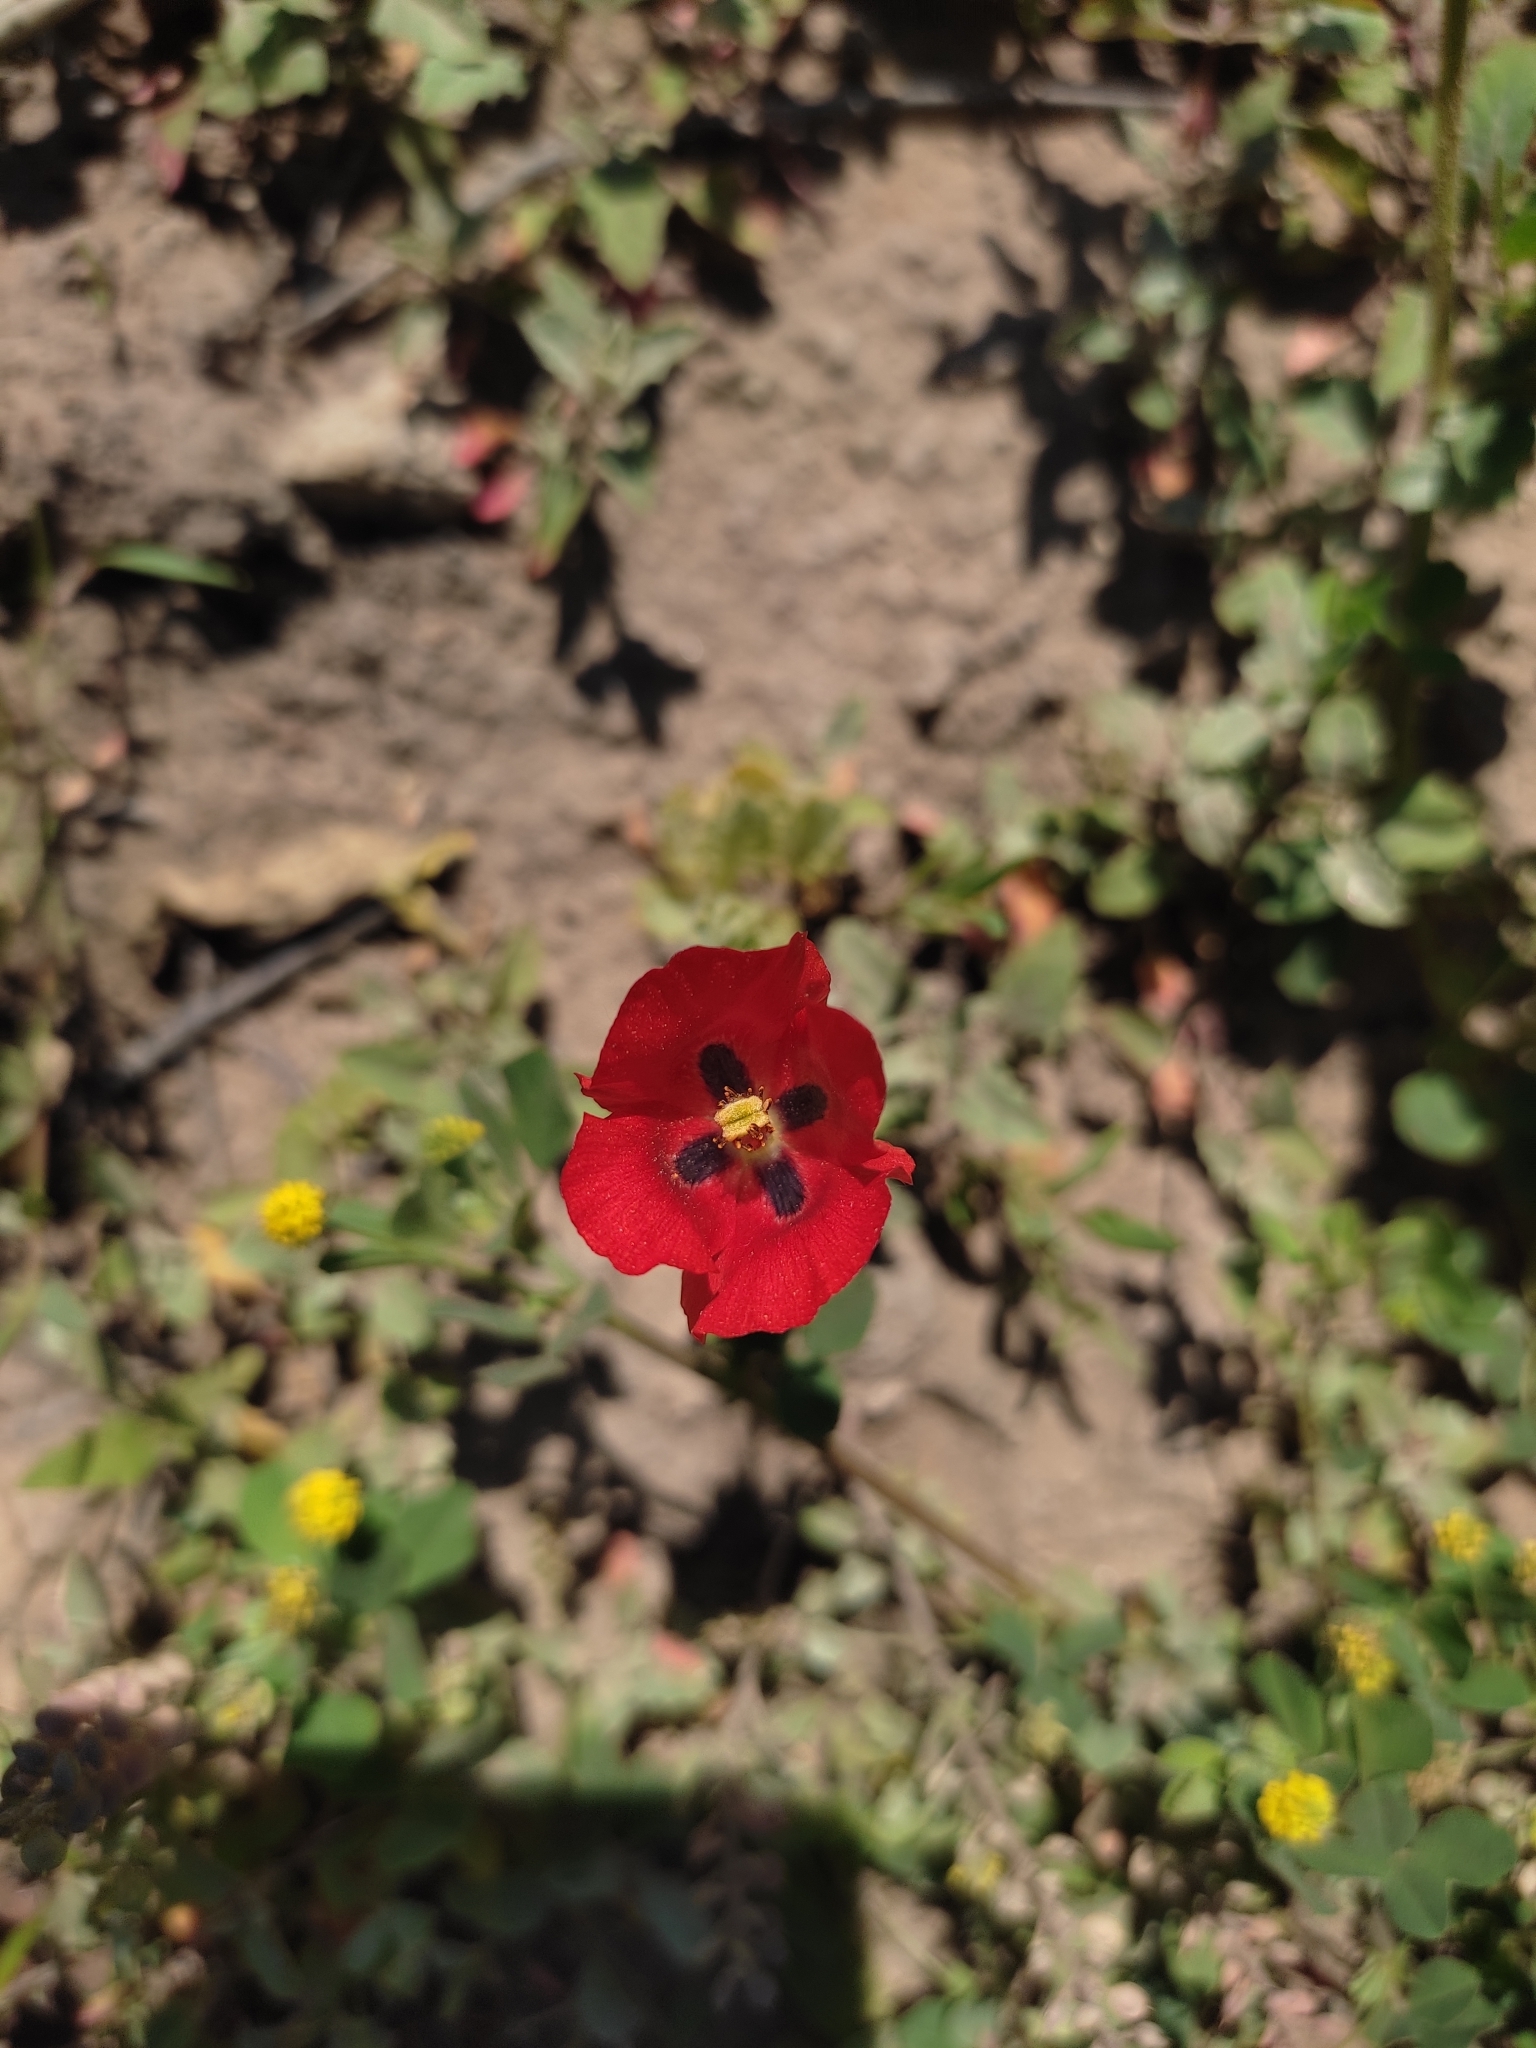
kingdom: Plantae
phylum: Tracheophyta
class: Magnoliopsida
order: Ranunculales
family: Papaveraceae
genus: Glaucium
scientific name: Glaucium corniculatum
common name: Red horned-poppy
